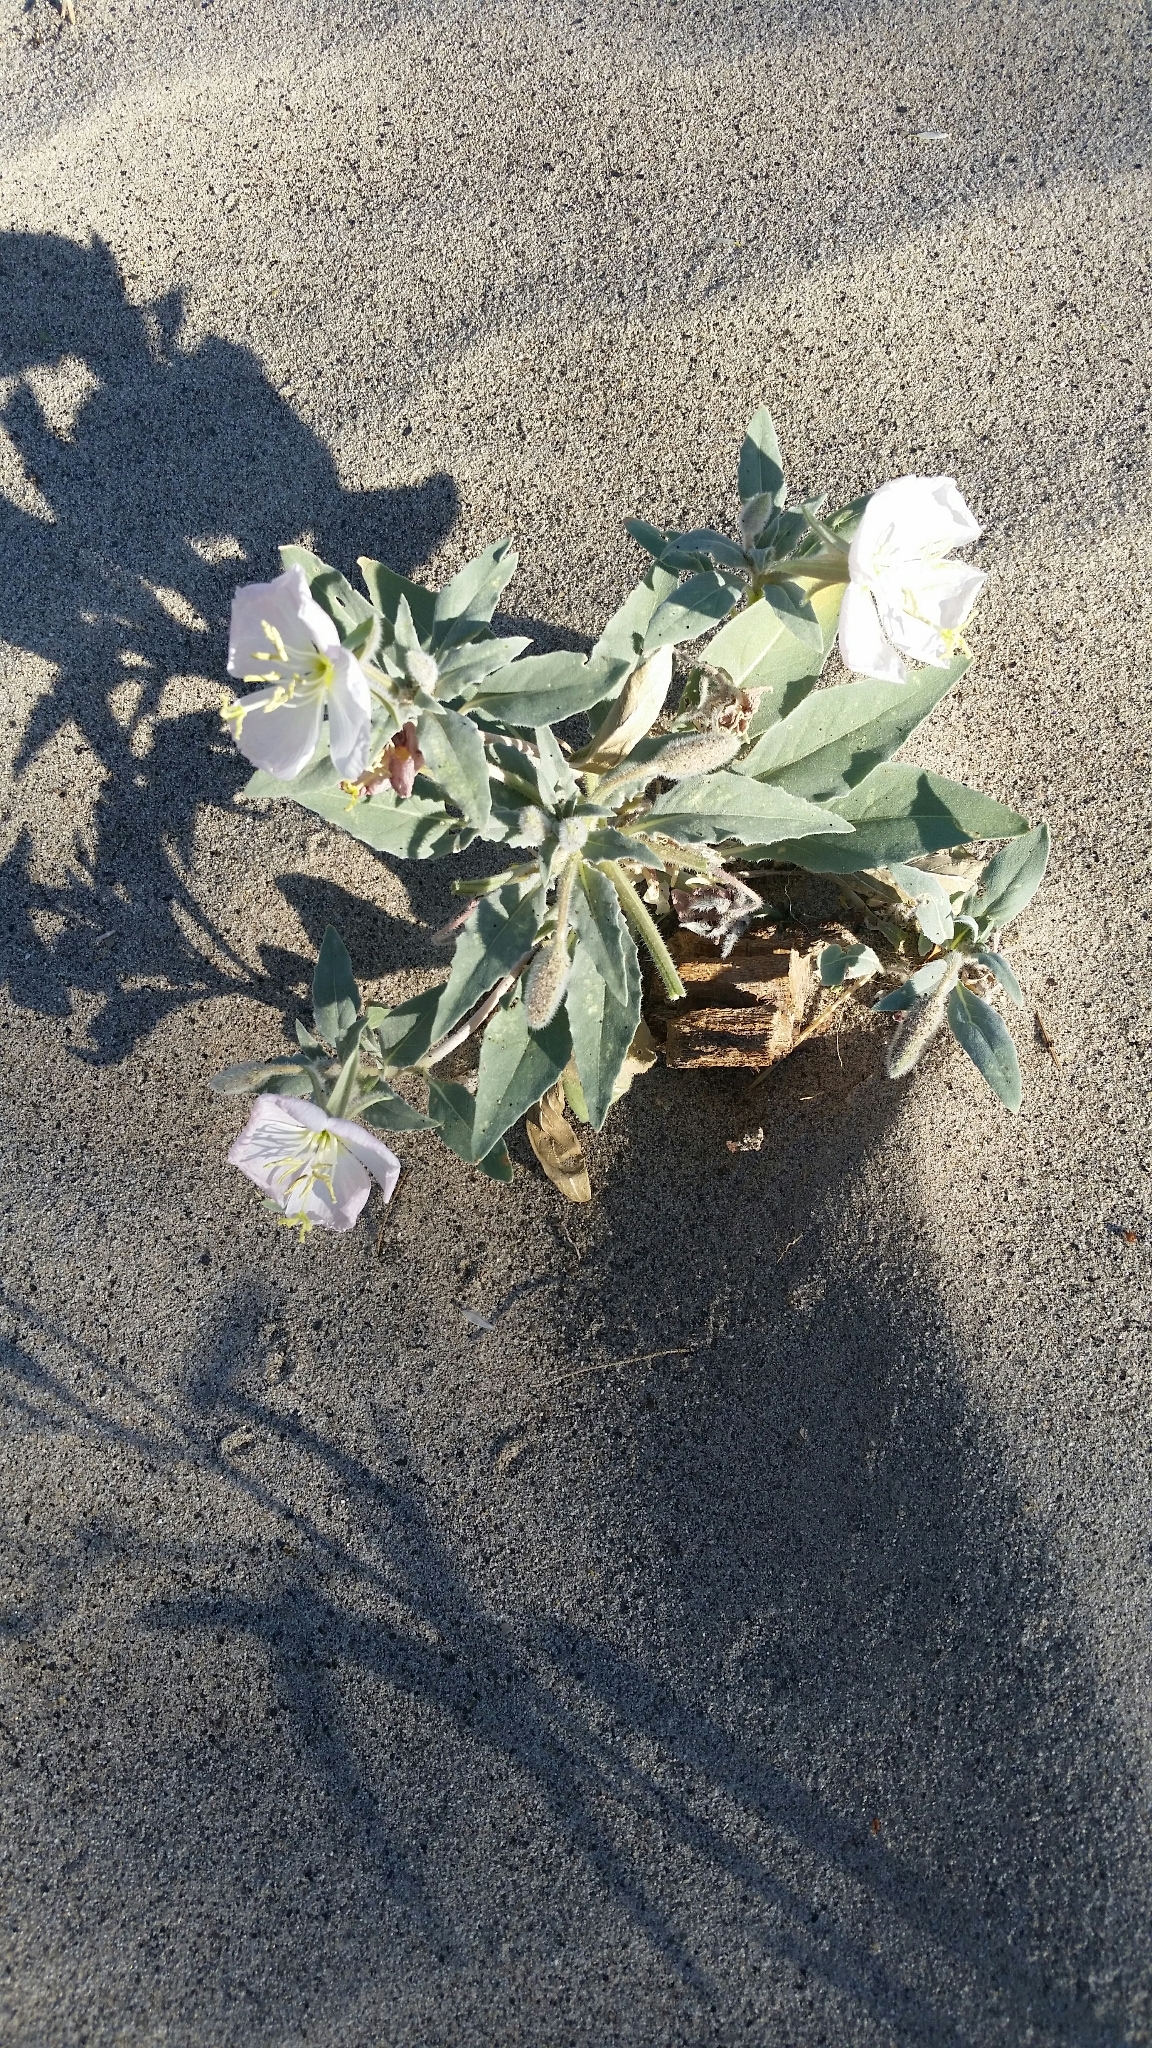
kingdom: Plantae
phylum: Tracheophyta
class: Magnoliopsida
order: Myrtales
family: Onagraceae
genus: Oenothera
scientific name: Oenothera deltoides
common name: Basket evening-primrose
